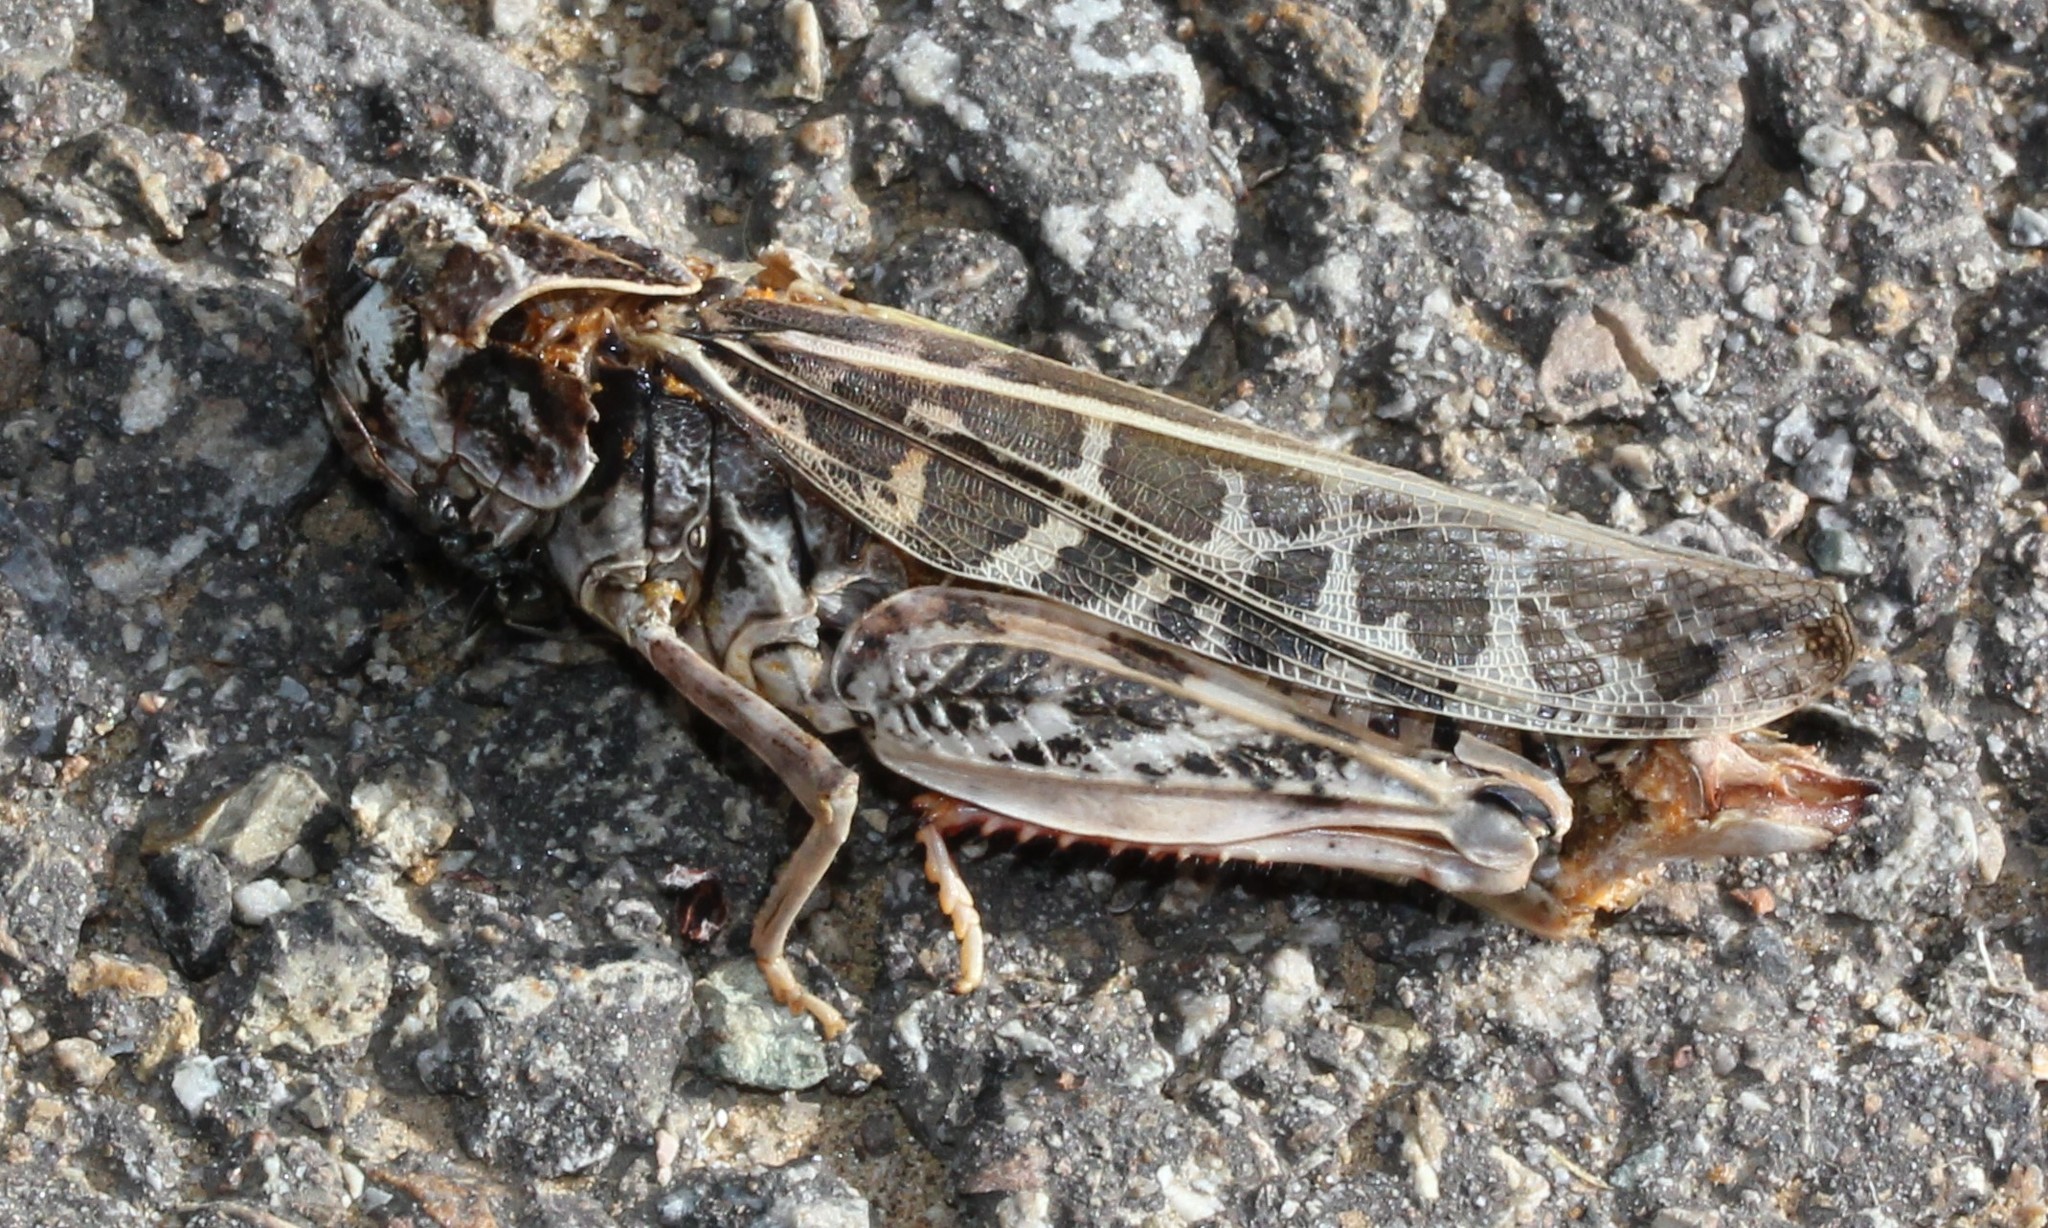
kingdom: Animalia
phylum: Arthropoda
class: Insecta
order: Orthoptera
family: Acrididae
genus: Xanthippus
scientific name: Xanthippus corallipes
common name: Redshanked grasshopper
